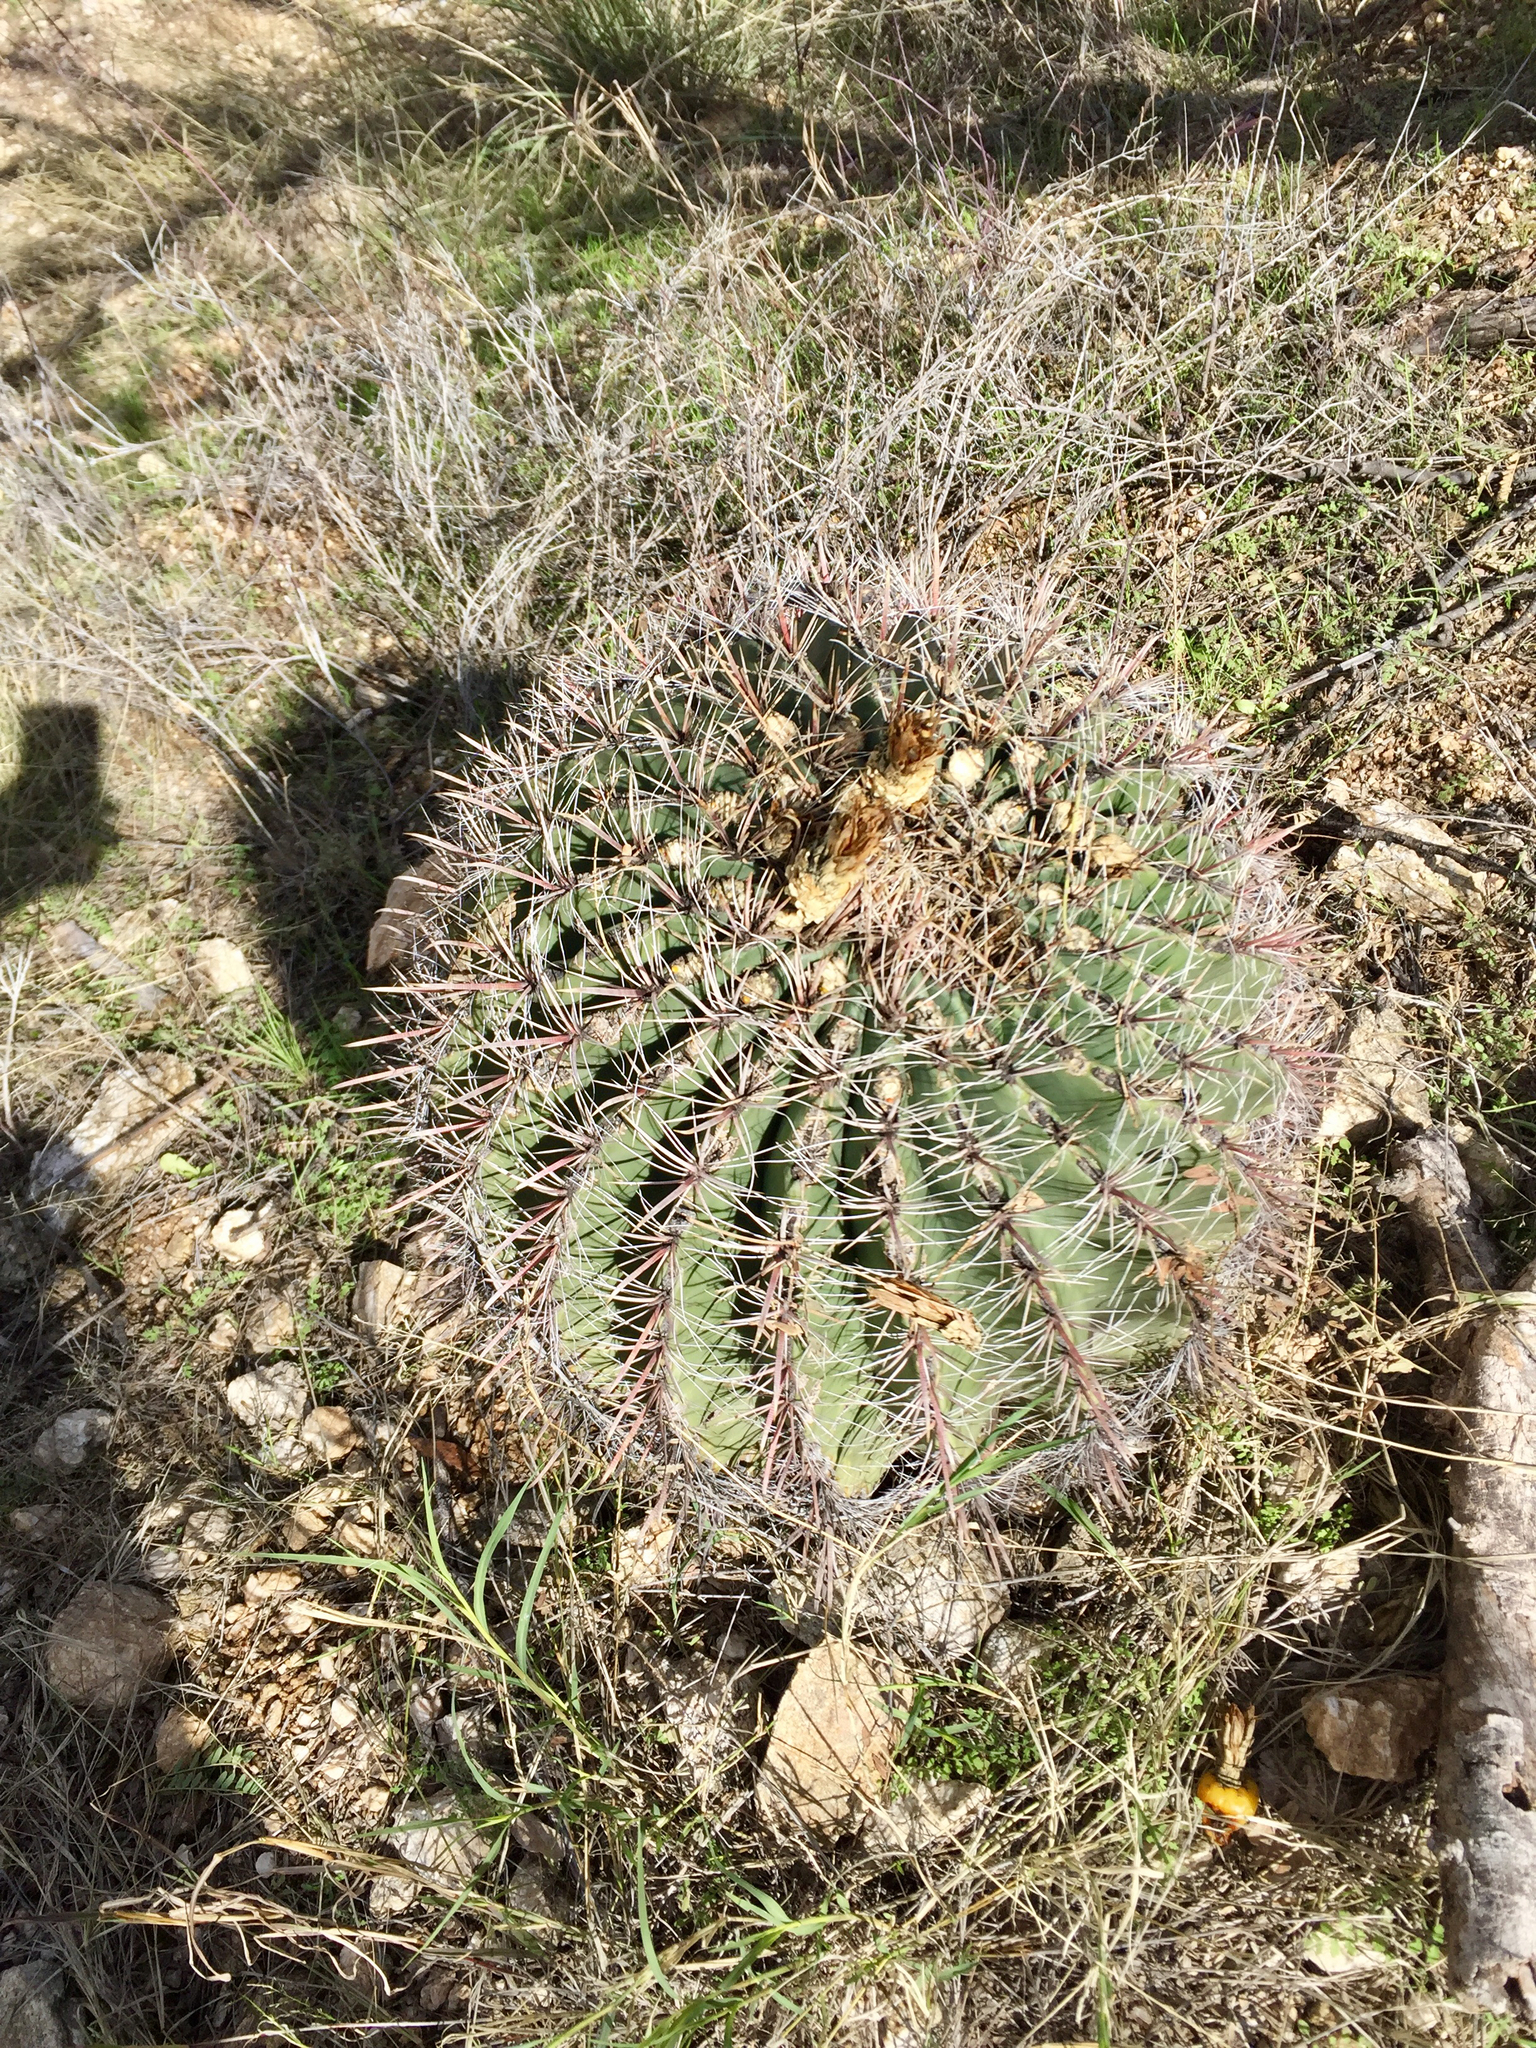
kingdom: Plantae
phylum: Tracheophyta
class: Magnoliopsida
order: Caryophyllales
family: Cactaceae
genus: Ferocactus
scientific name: Ferocactus wislizeni
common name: Candy barrel cactus
